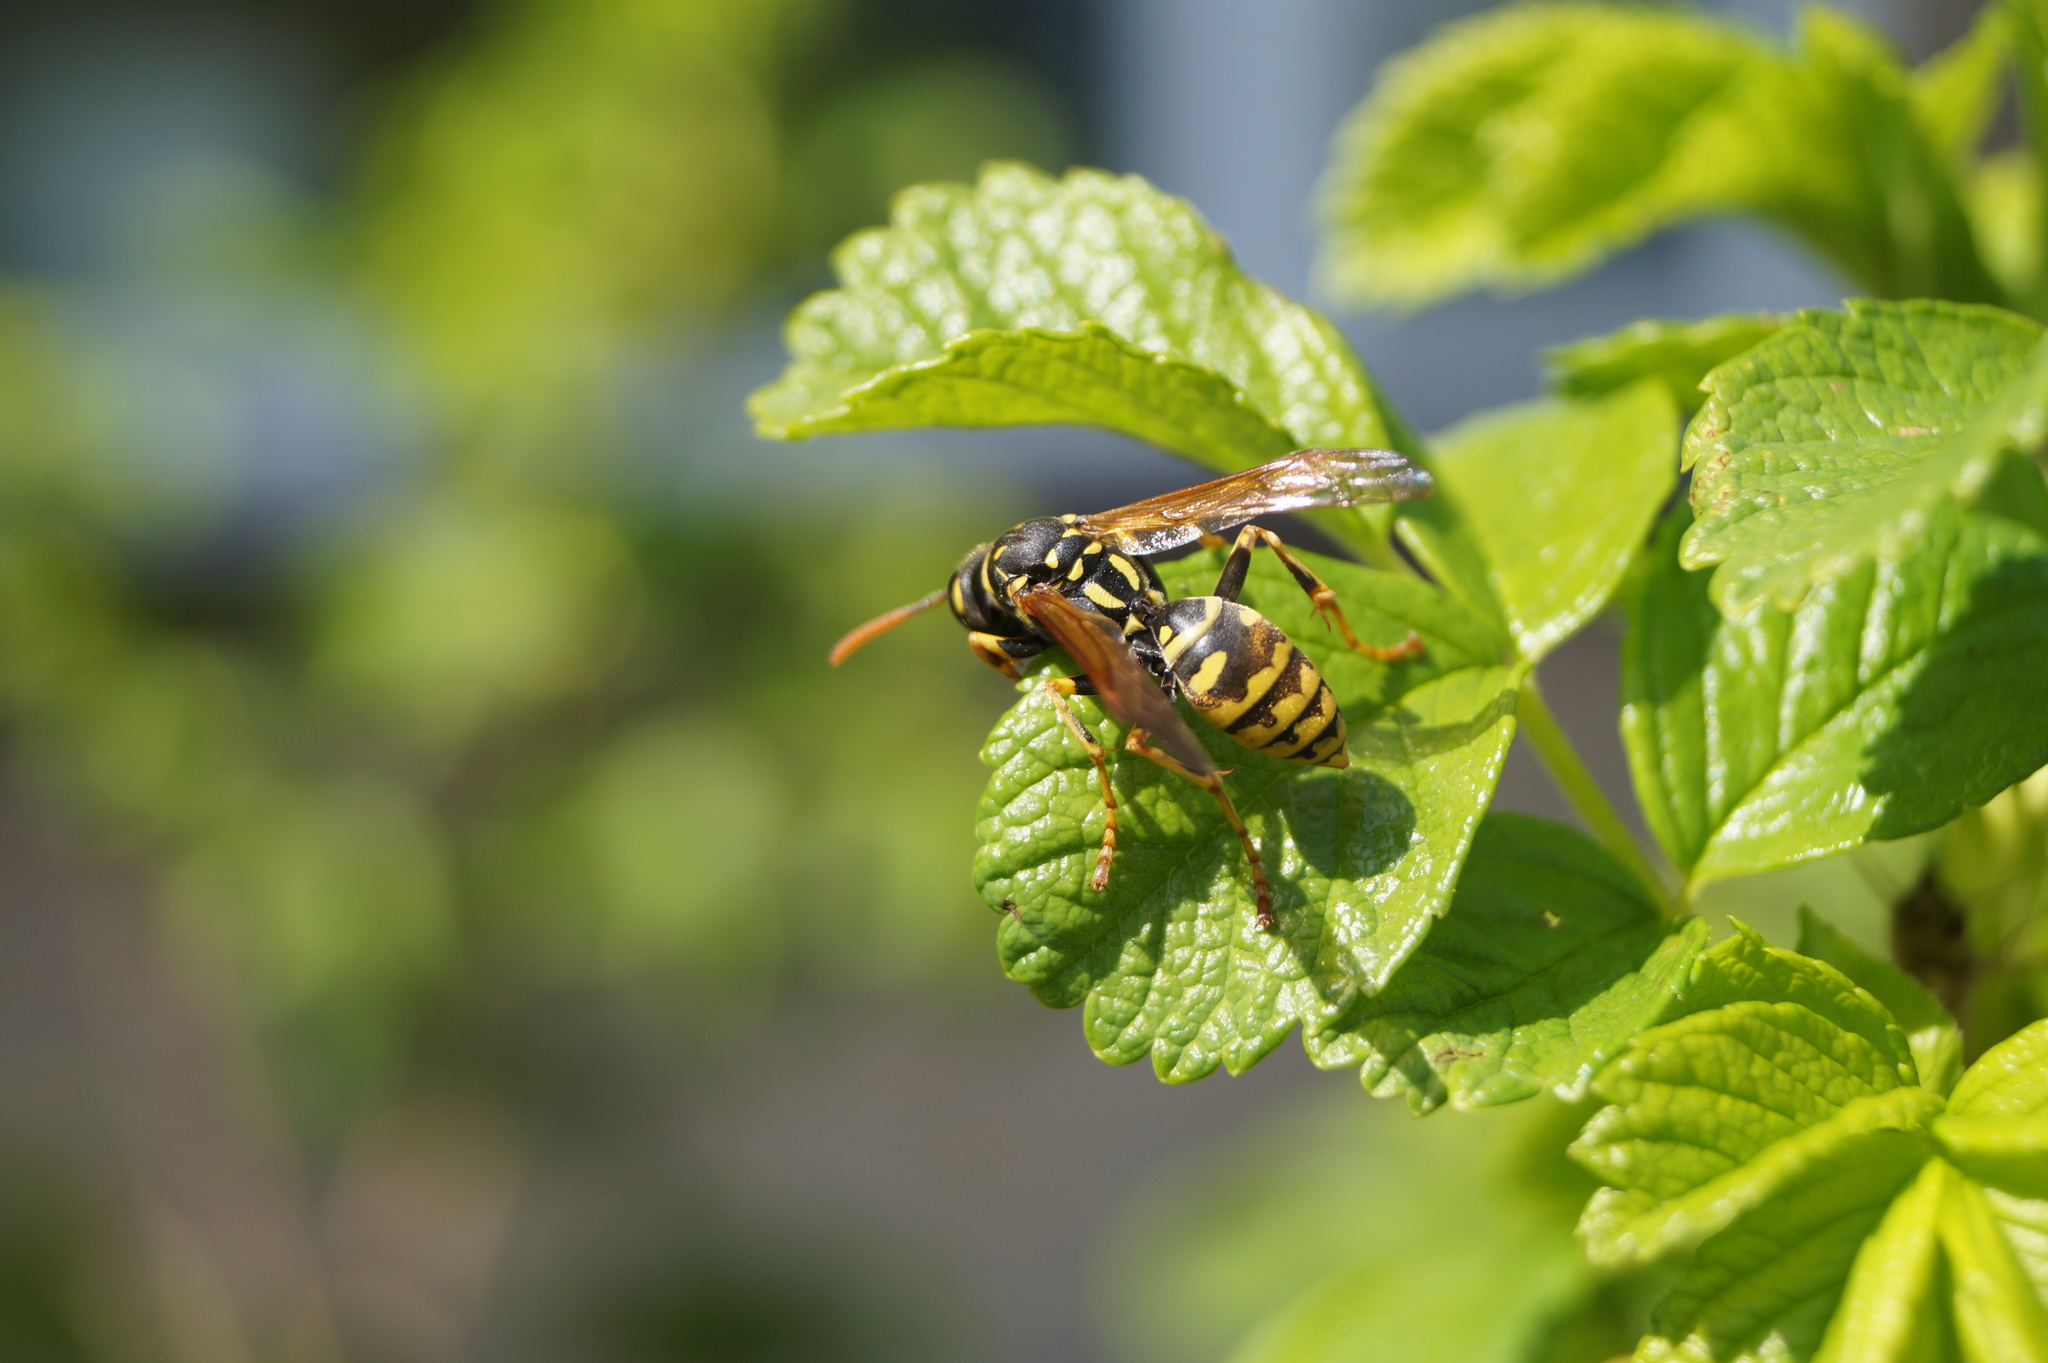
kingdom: Animalia
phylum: Arthropoda
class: Insecta
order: Hymenoptera
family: Eumenidae
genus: Polistes
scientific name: Polistes dominula
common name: Paper wasp
